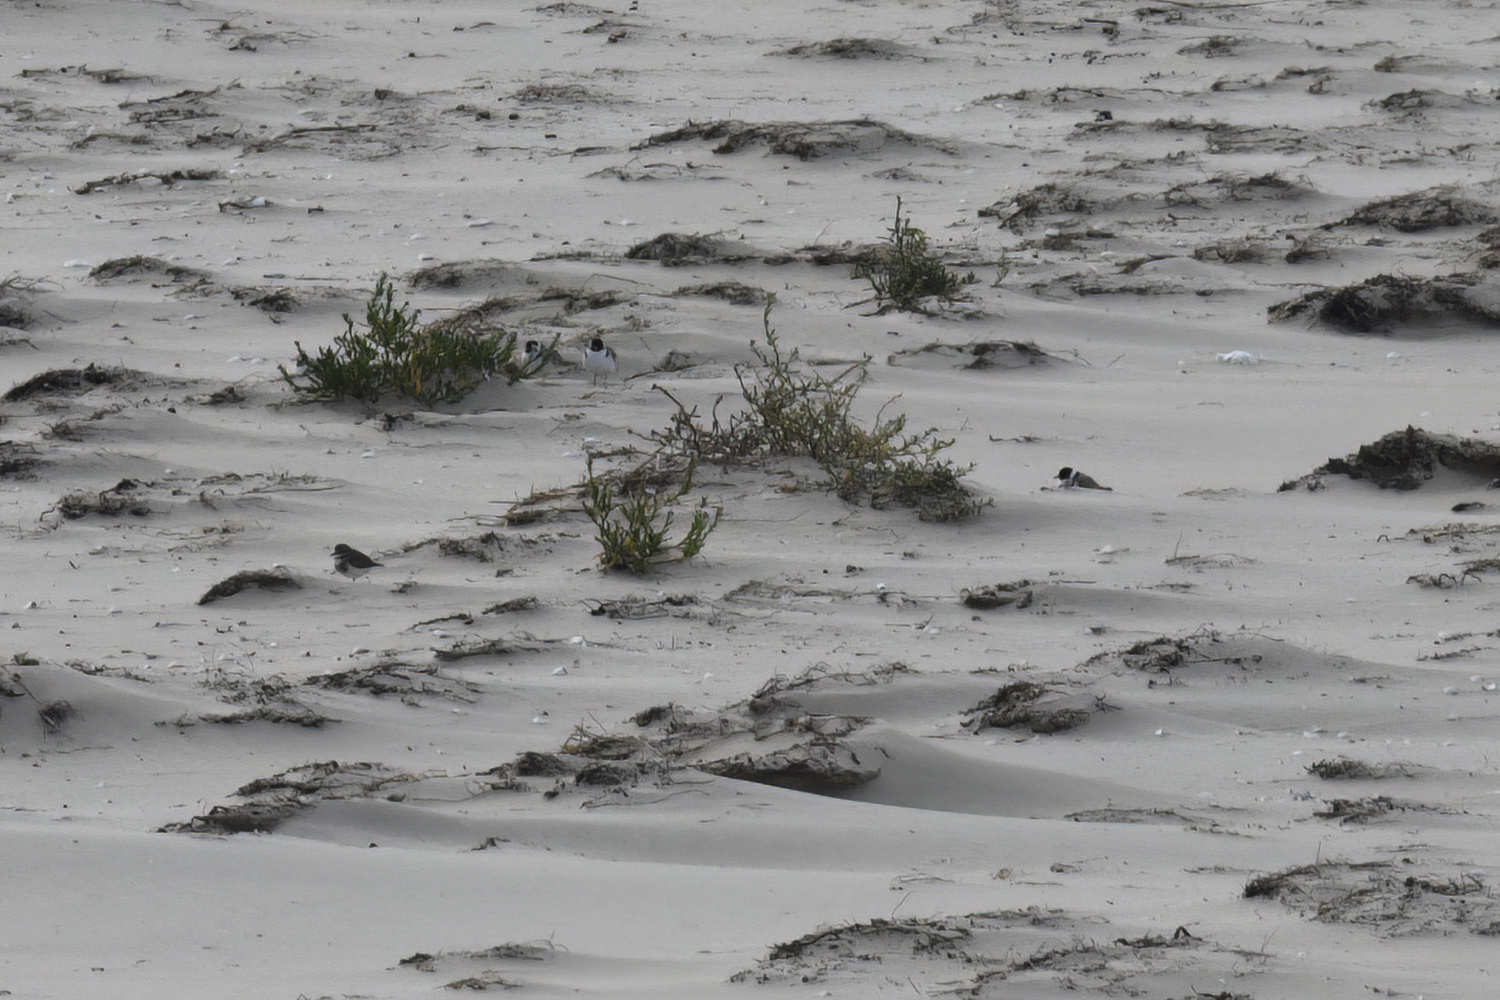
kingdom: Animalia
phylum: Chordata
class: Aves
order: Charadriiformes
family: Charadriidae
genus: Thinornis
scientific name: Thinornis cucullatus
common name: Hooded dotterel
